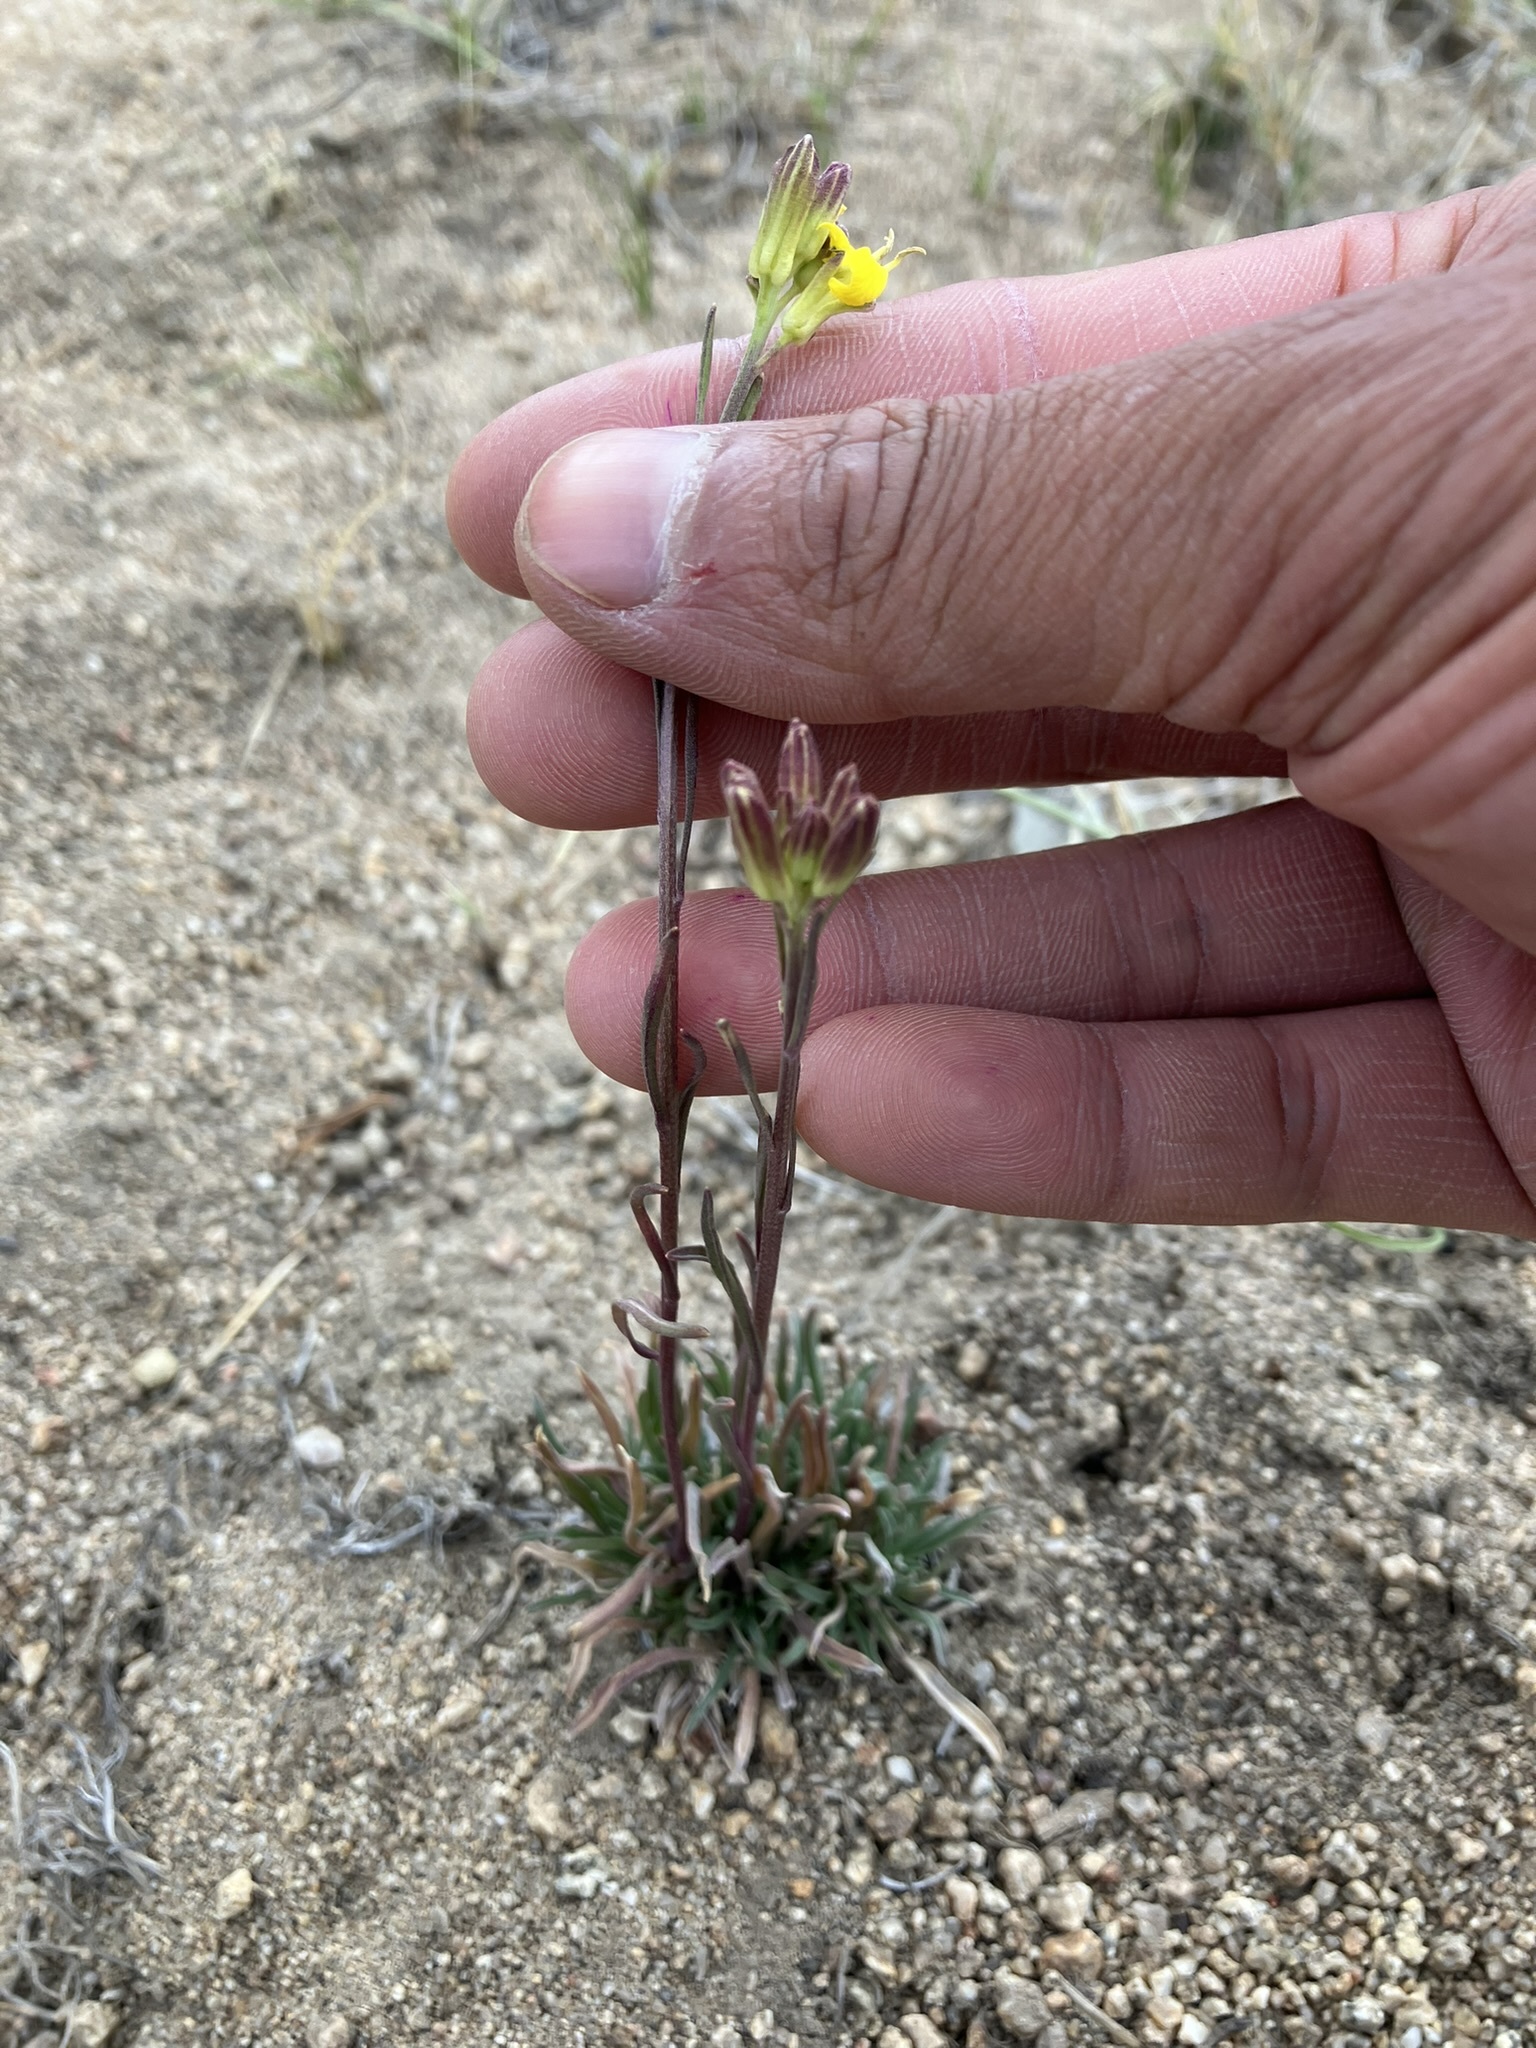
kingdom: Plantae
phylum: Tracheophyta
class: Magnoliopsida
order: Brassicales
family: Brassicaceae
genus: Erysimum
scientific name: Erysimum capitatum
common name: Western wallflower
